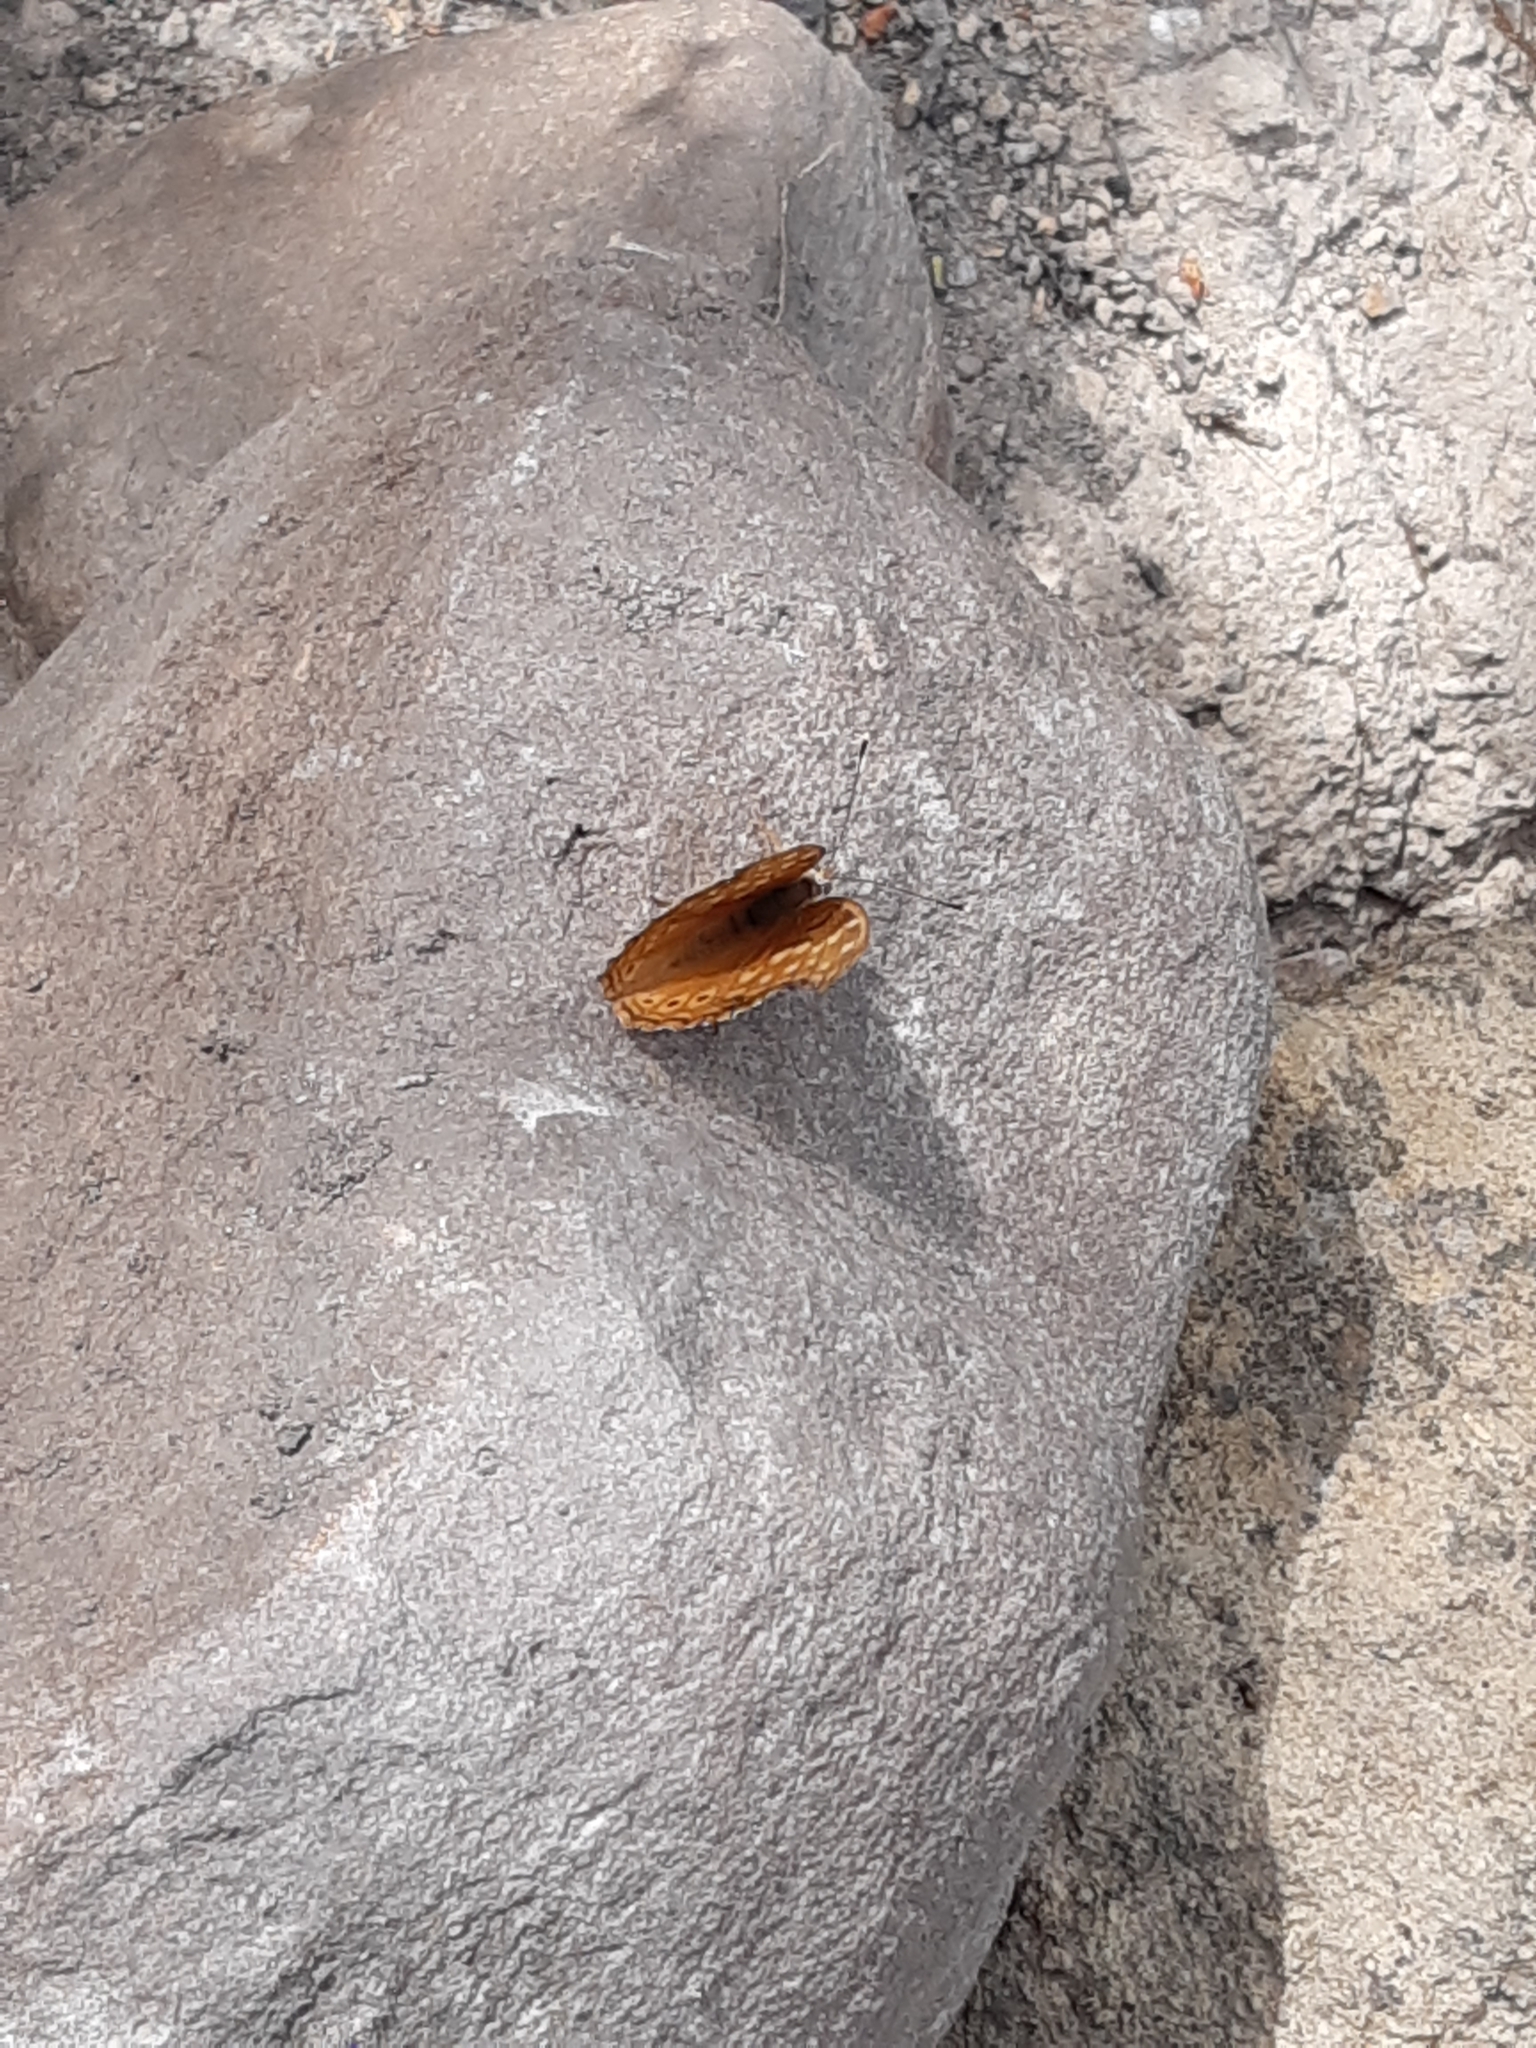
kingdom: Animalia
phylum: Arthropoda
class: Insecta
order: Lepidoptera
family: Nymphalidae
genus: Asterocampa
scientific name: Asterocampa clyton
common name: Tawny emperor
